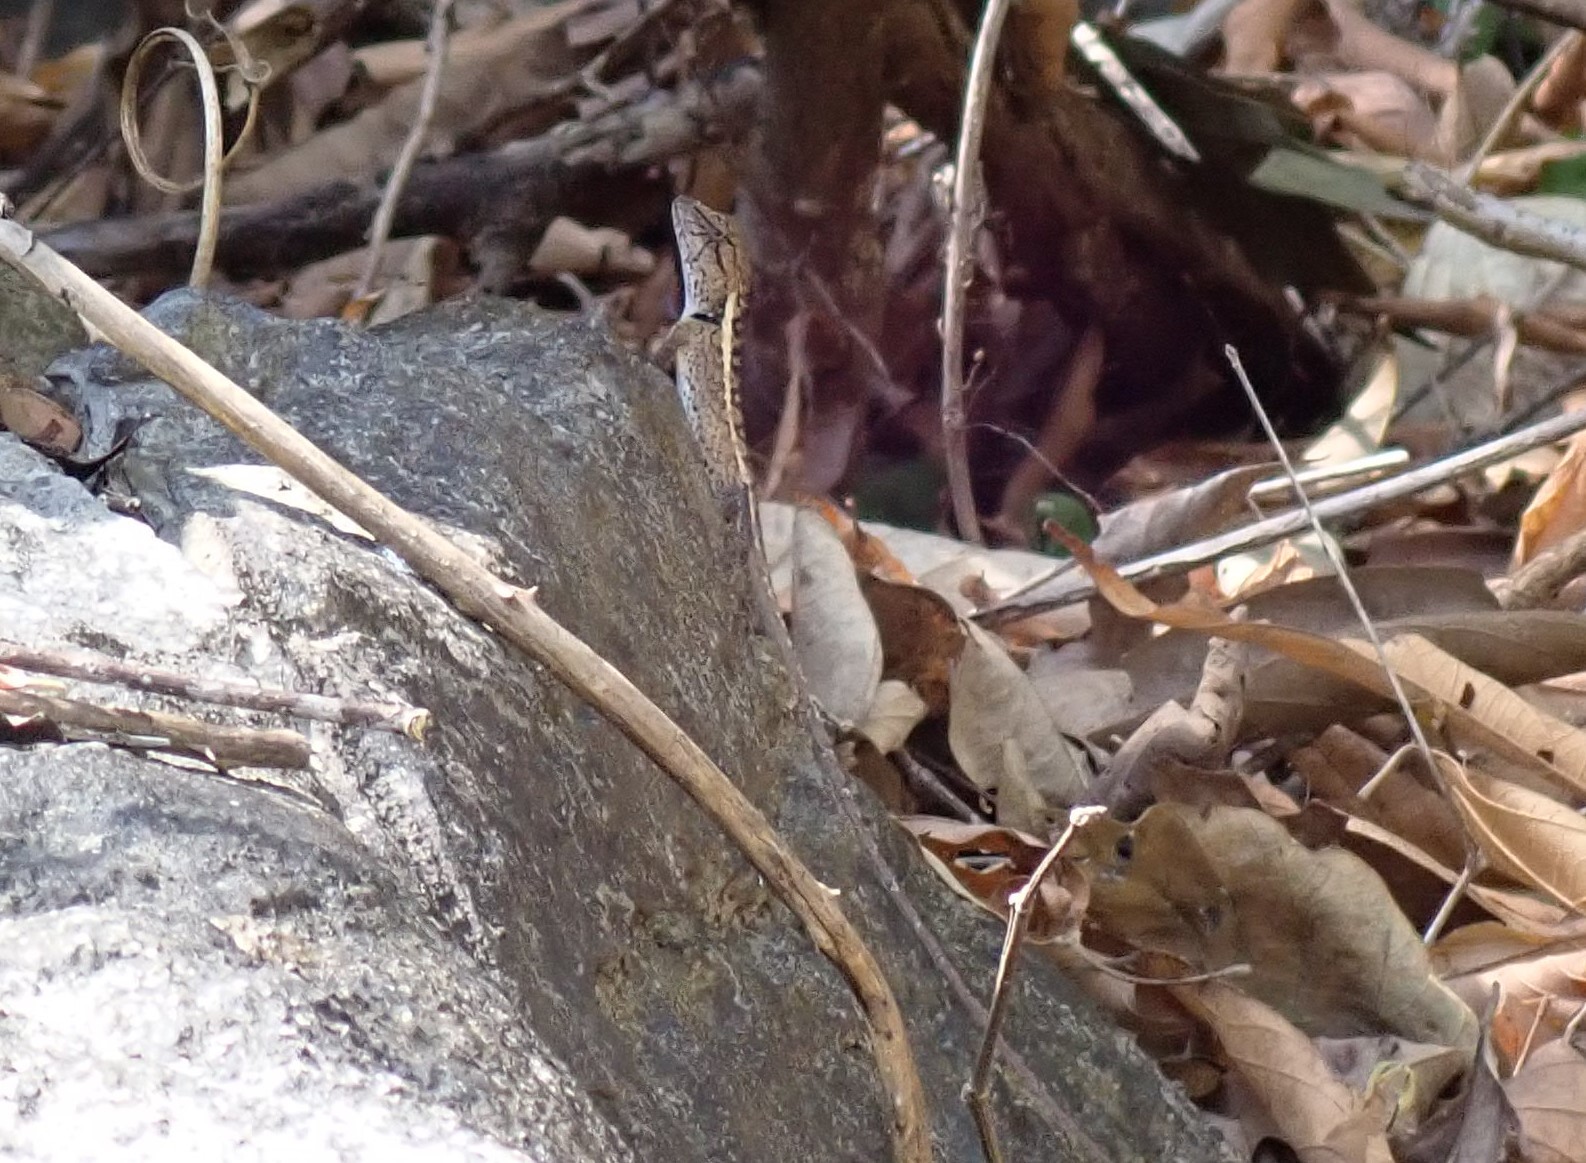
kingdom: Animalia
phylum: Chordata
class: Squamata
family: Agamidae
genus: Calotes
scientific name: Calotes emma
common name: Thailand bloodsucker
